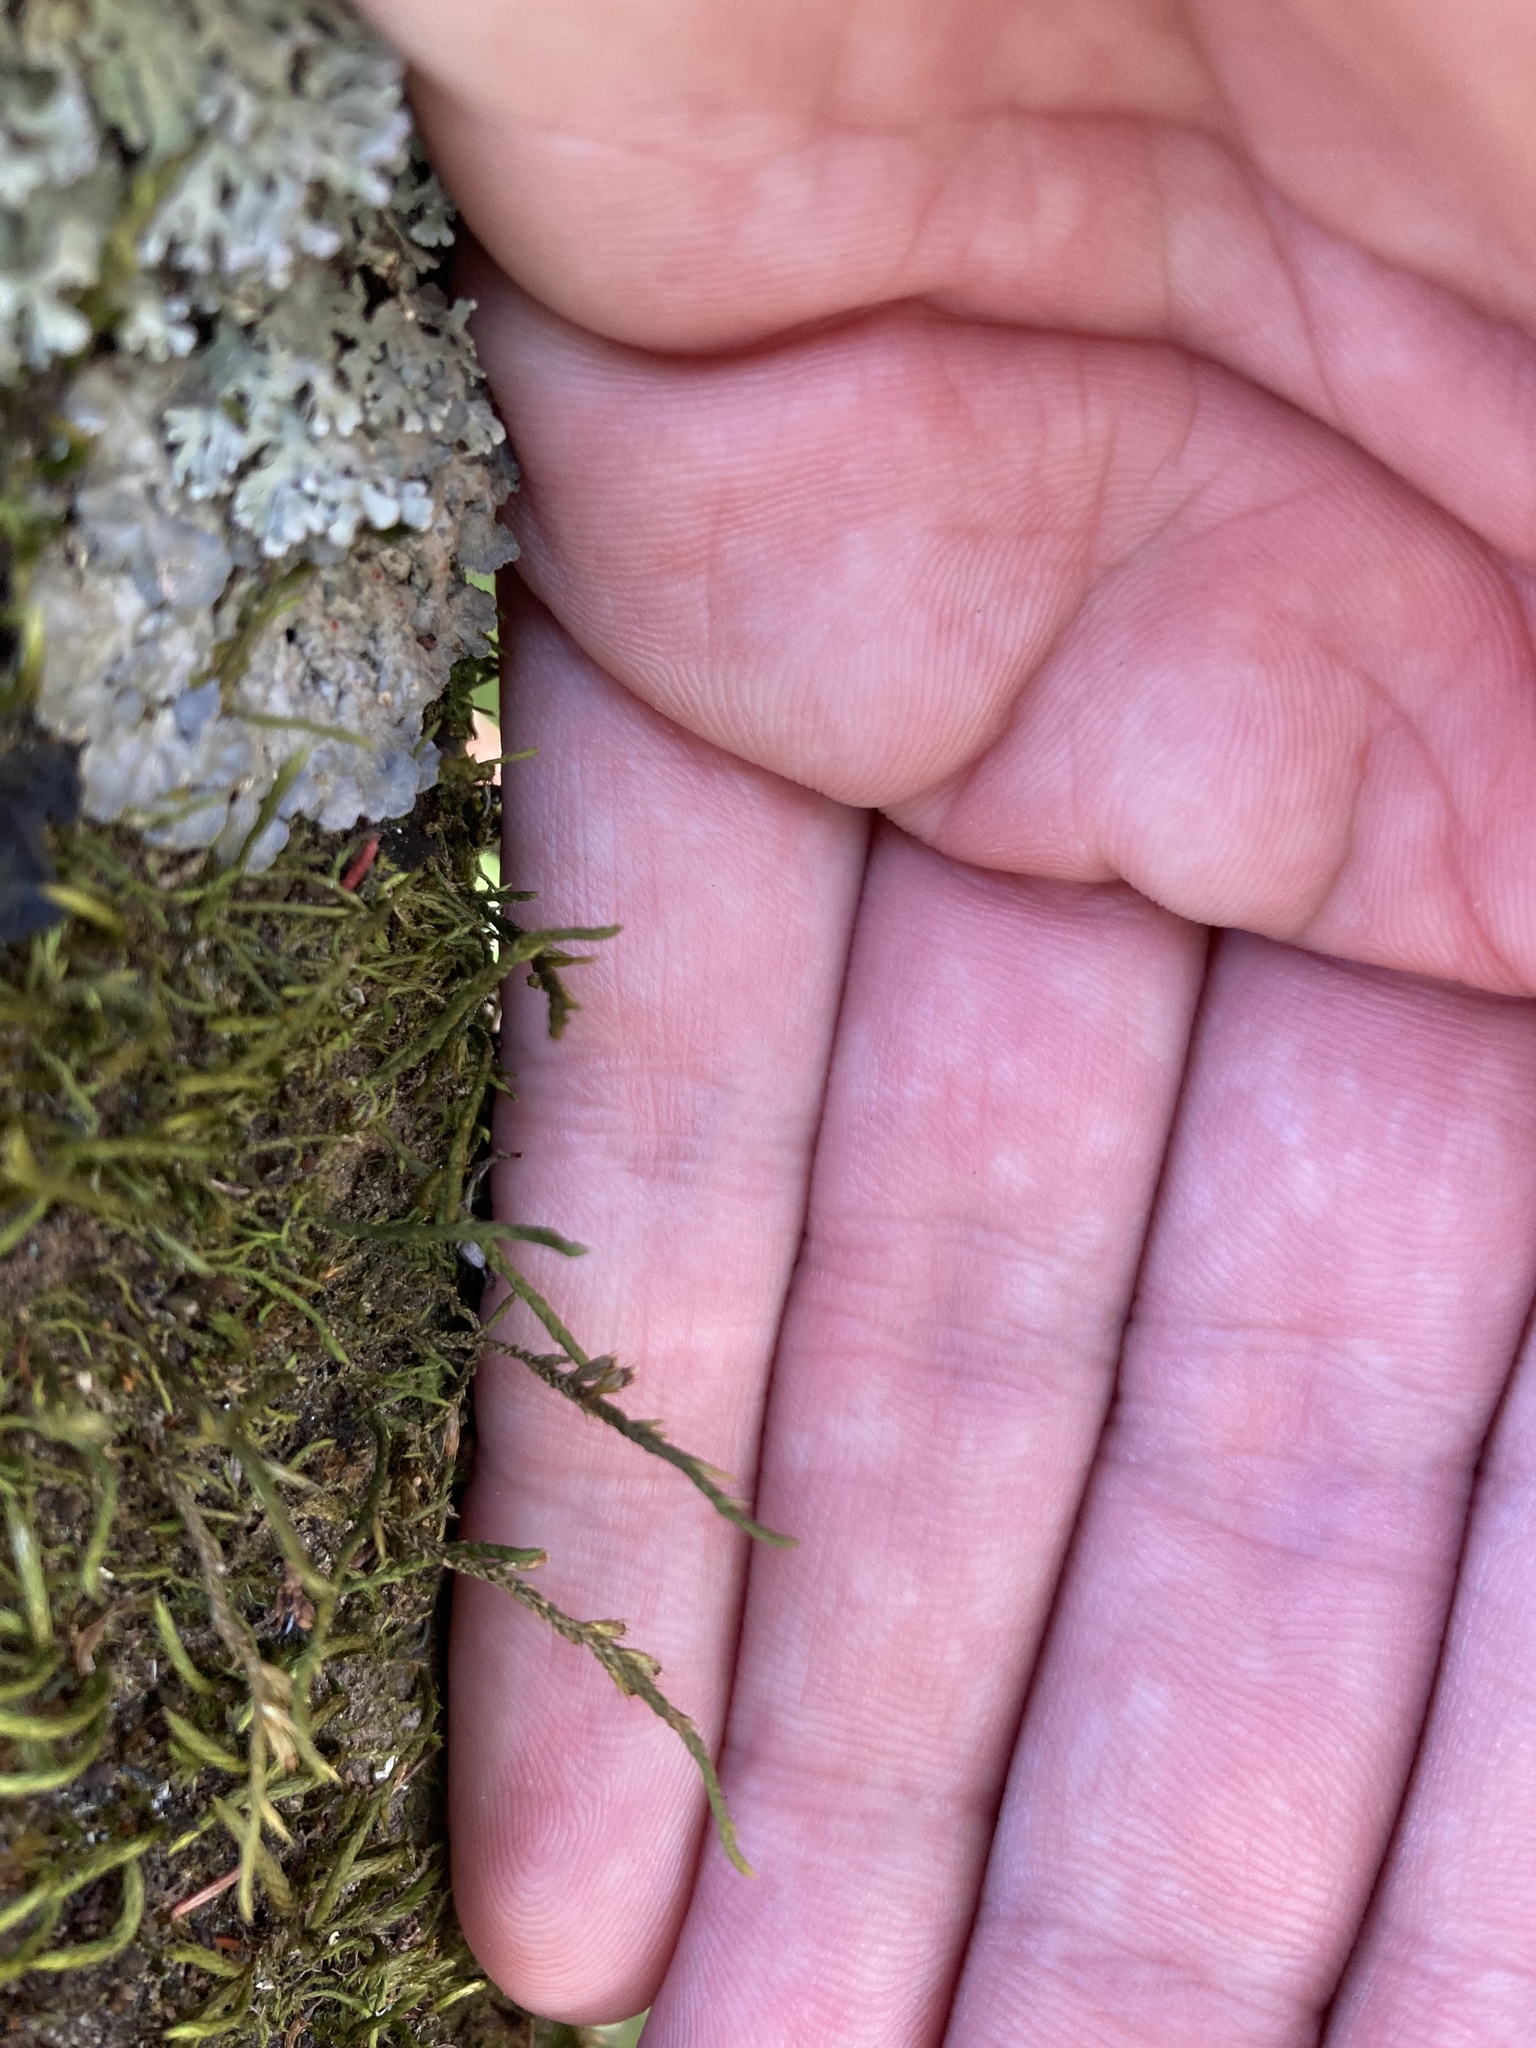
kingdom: Plantae
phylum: Bryophyta
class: Bryopsida
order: Hypnales
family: Cryphaeaceae
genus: Cryphaea
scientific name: Cryphaea heteromalla
